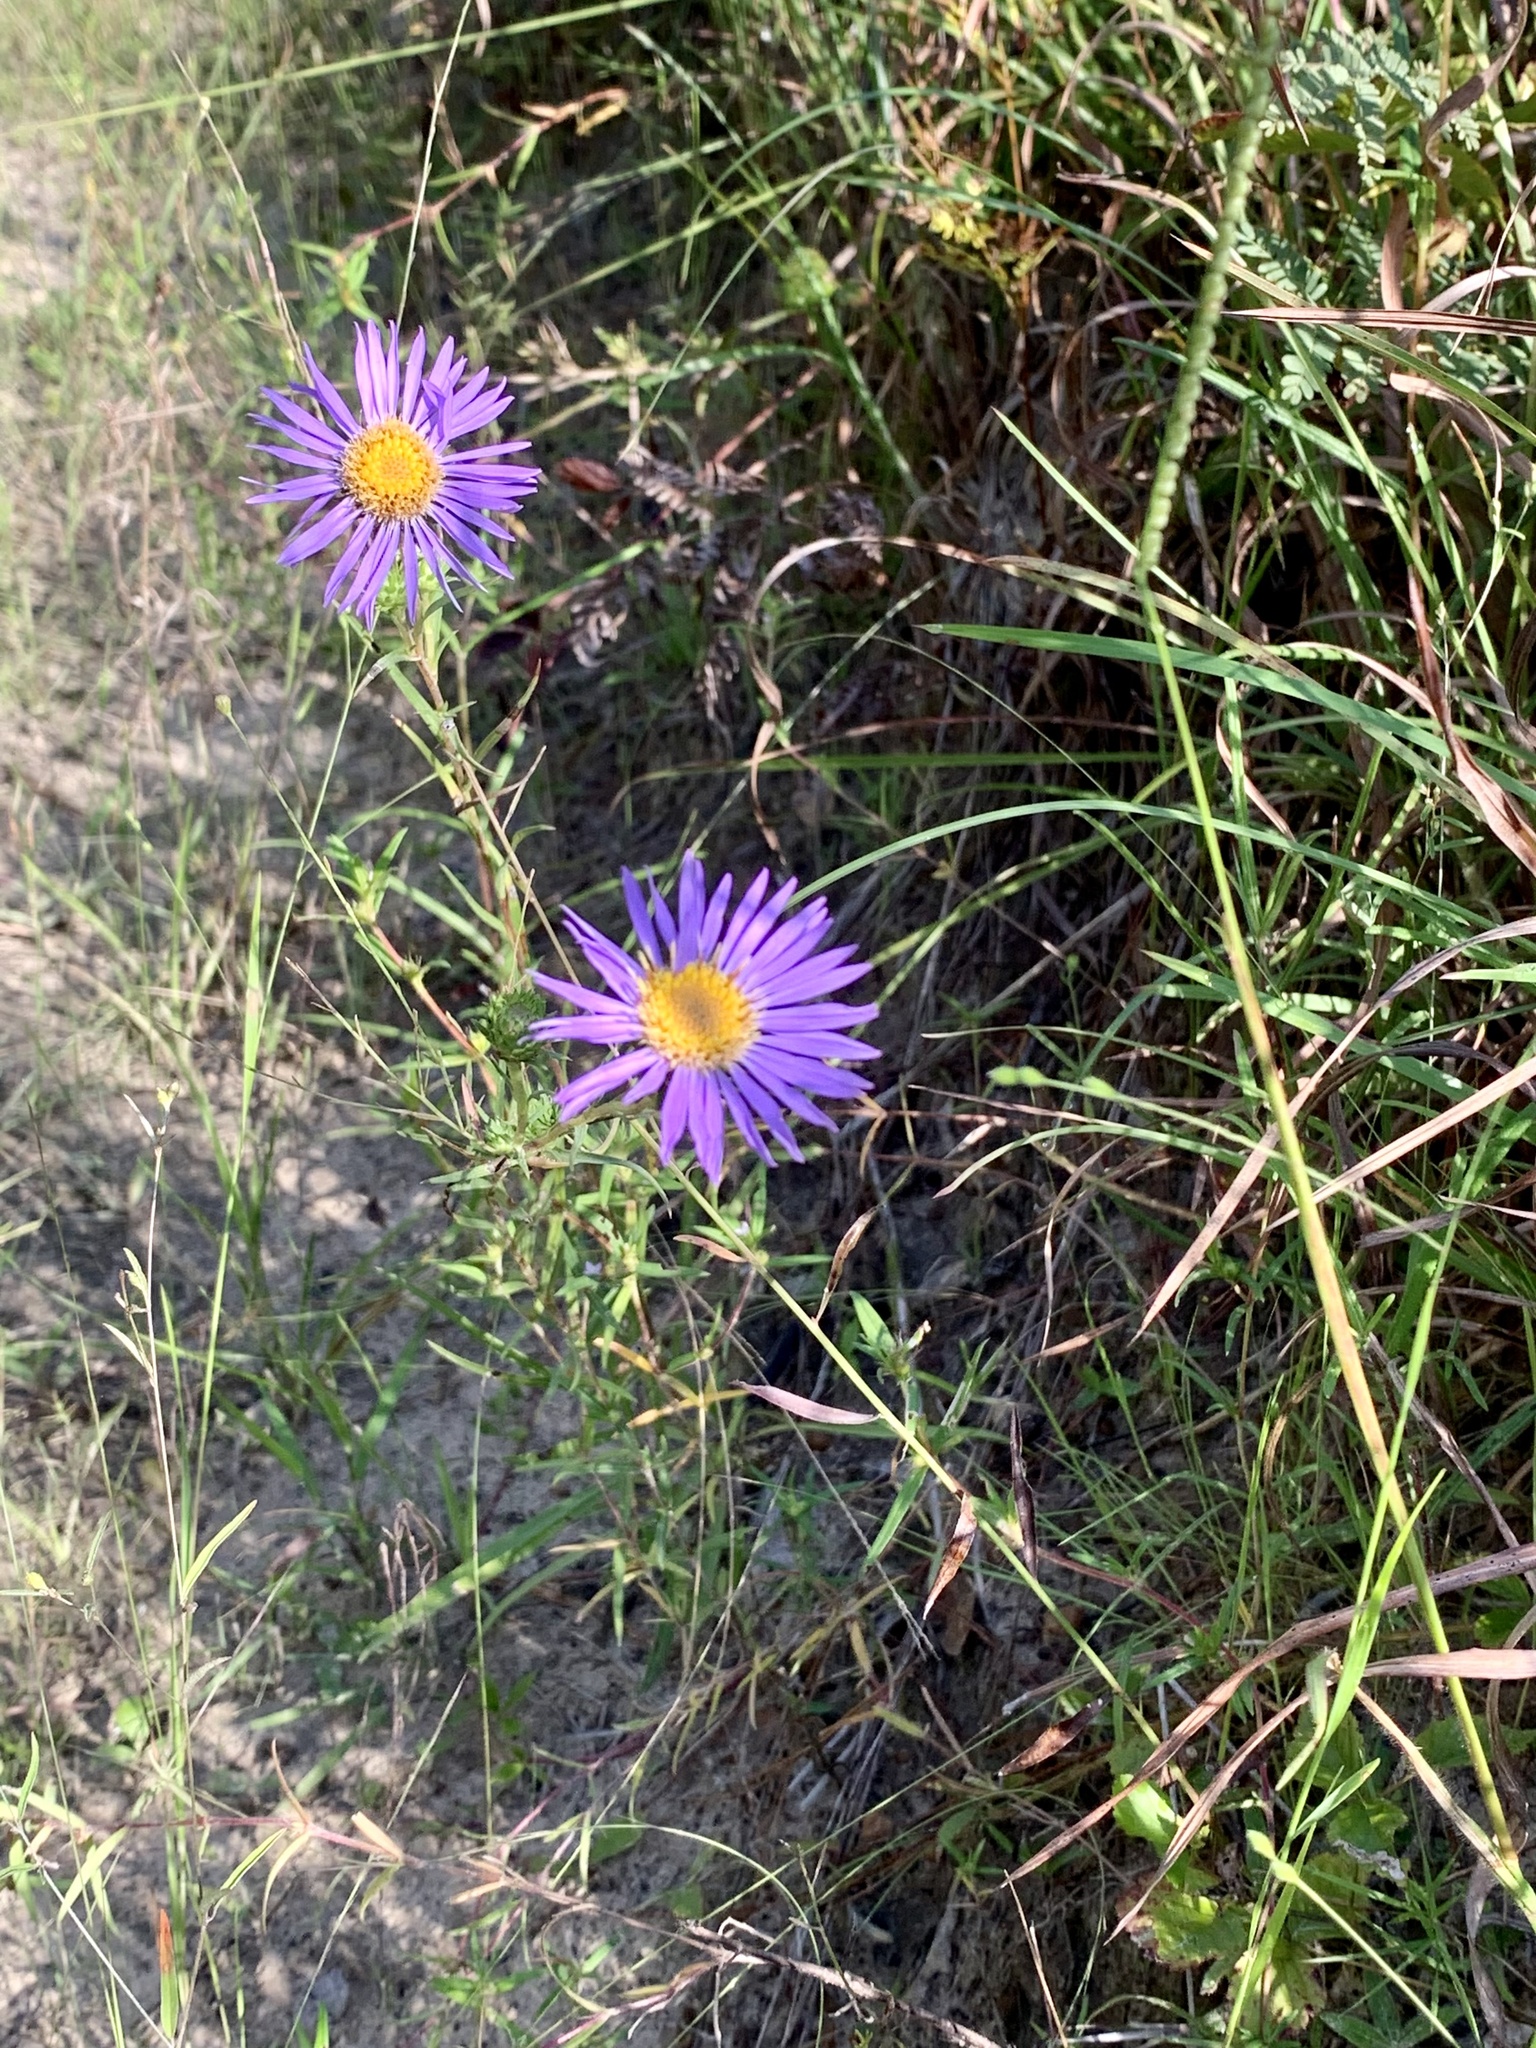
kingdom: Plantae
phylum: Tracheophyta
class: Magnoliopsida
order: Asterales
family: Asteraceae
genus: Eurybia
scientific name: Eurybia hemispherica
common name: Showy aster
